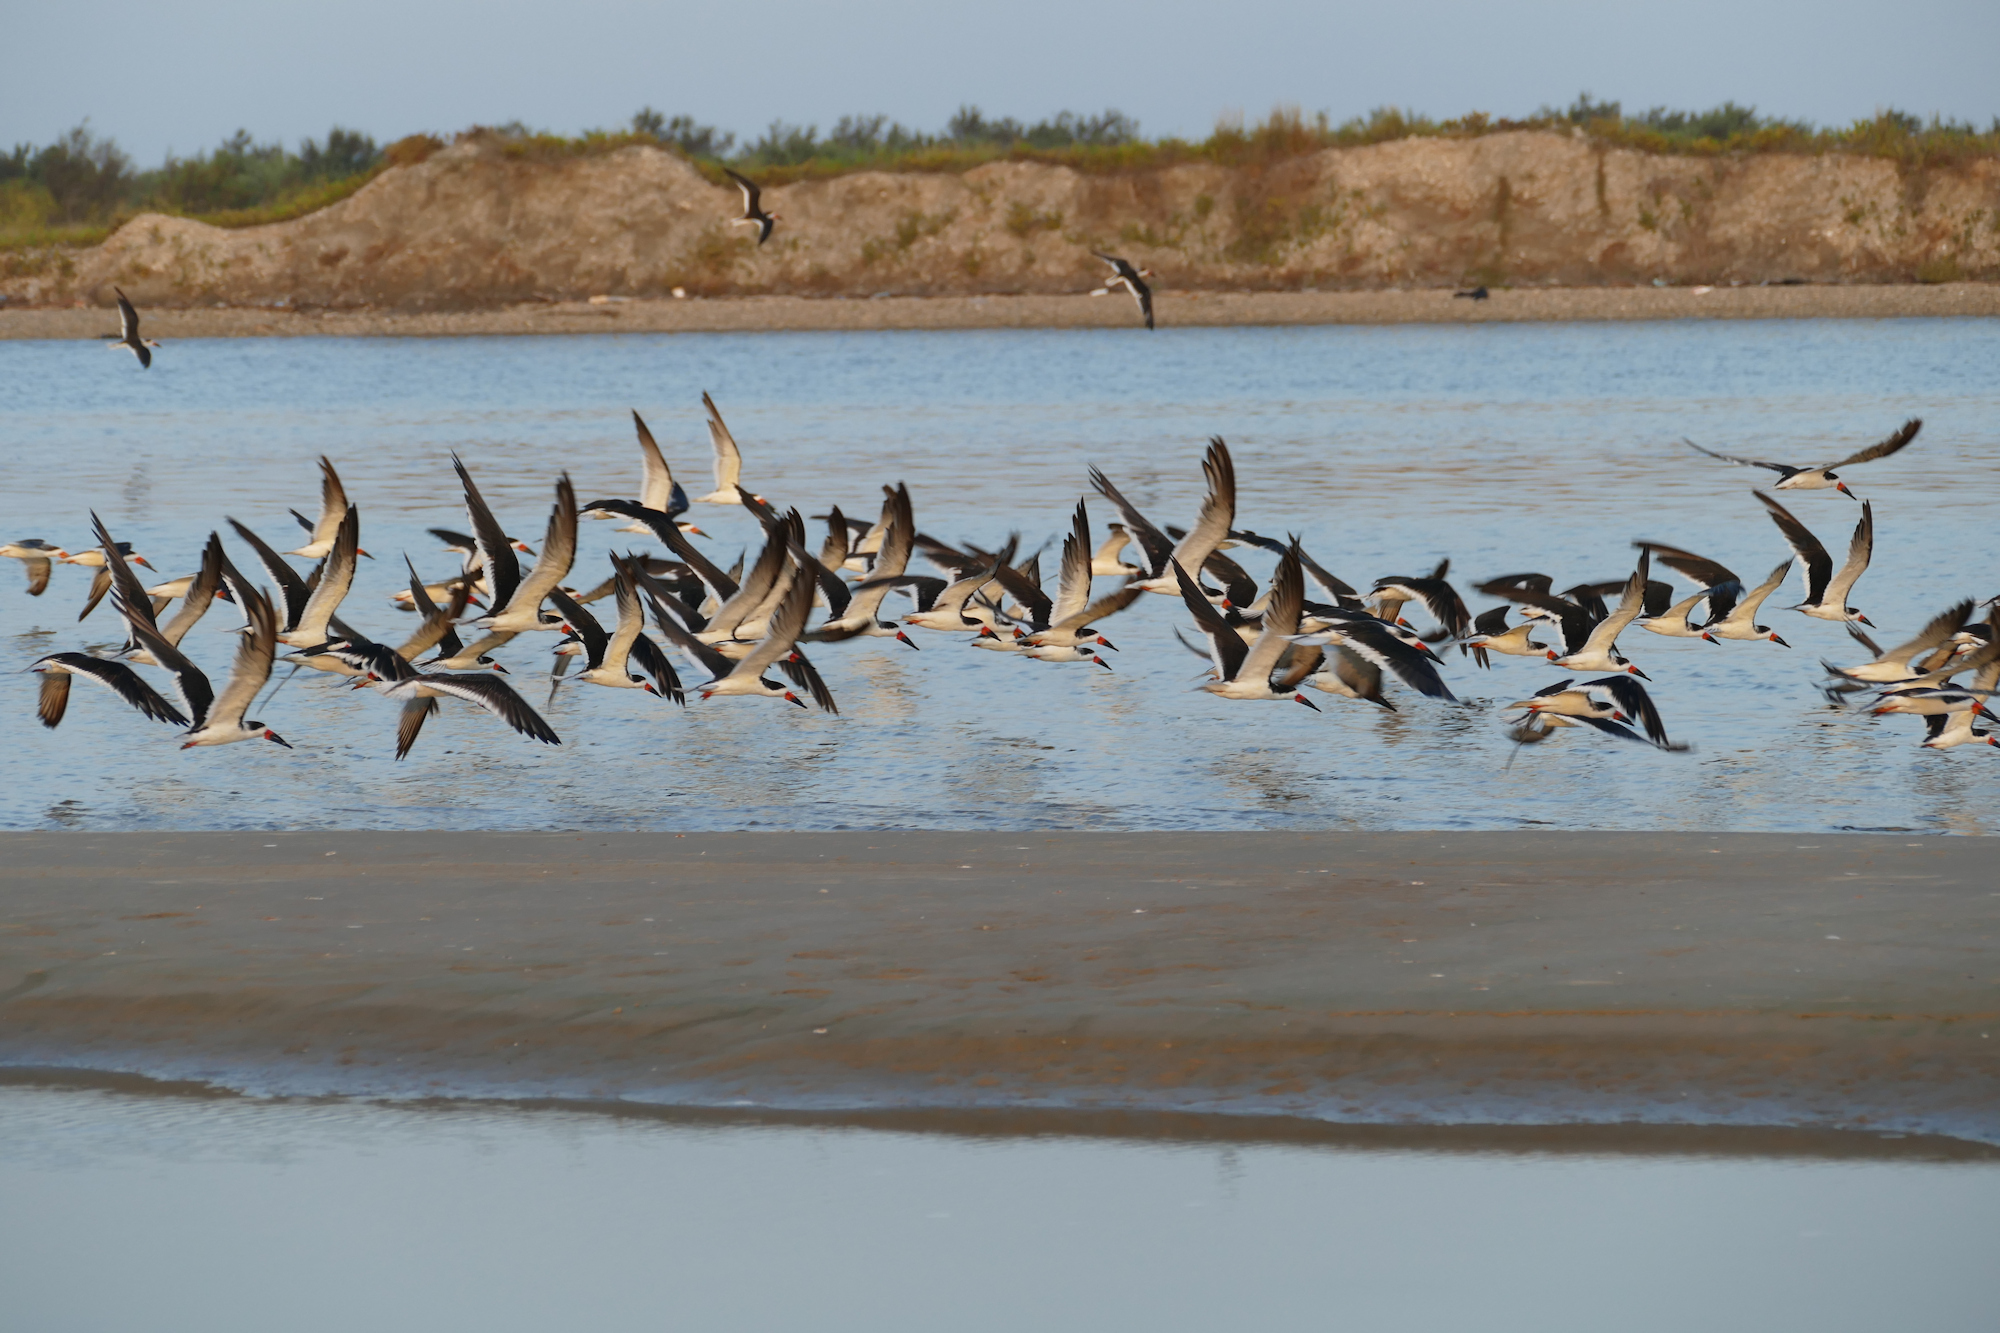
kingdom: Animalia
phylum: Chordata
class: Aves
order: Charadriiformes
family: Laridae
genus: Rynchops
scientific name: Rynchops niger
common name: Black skimmer
